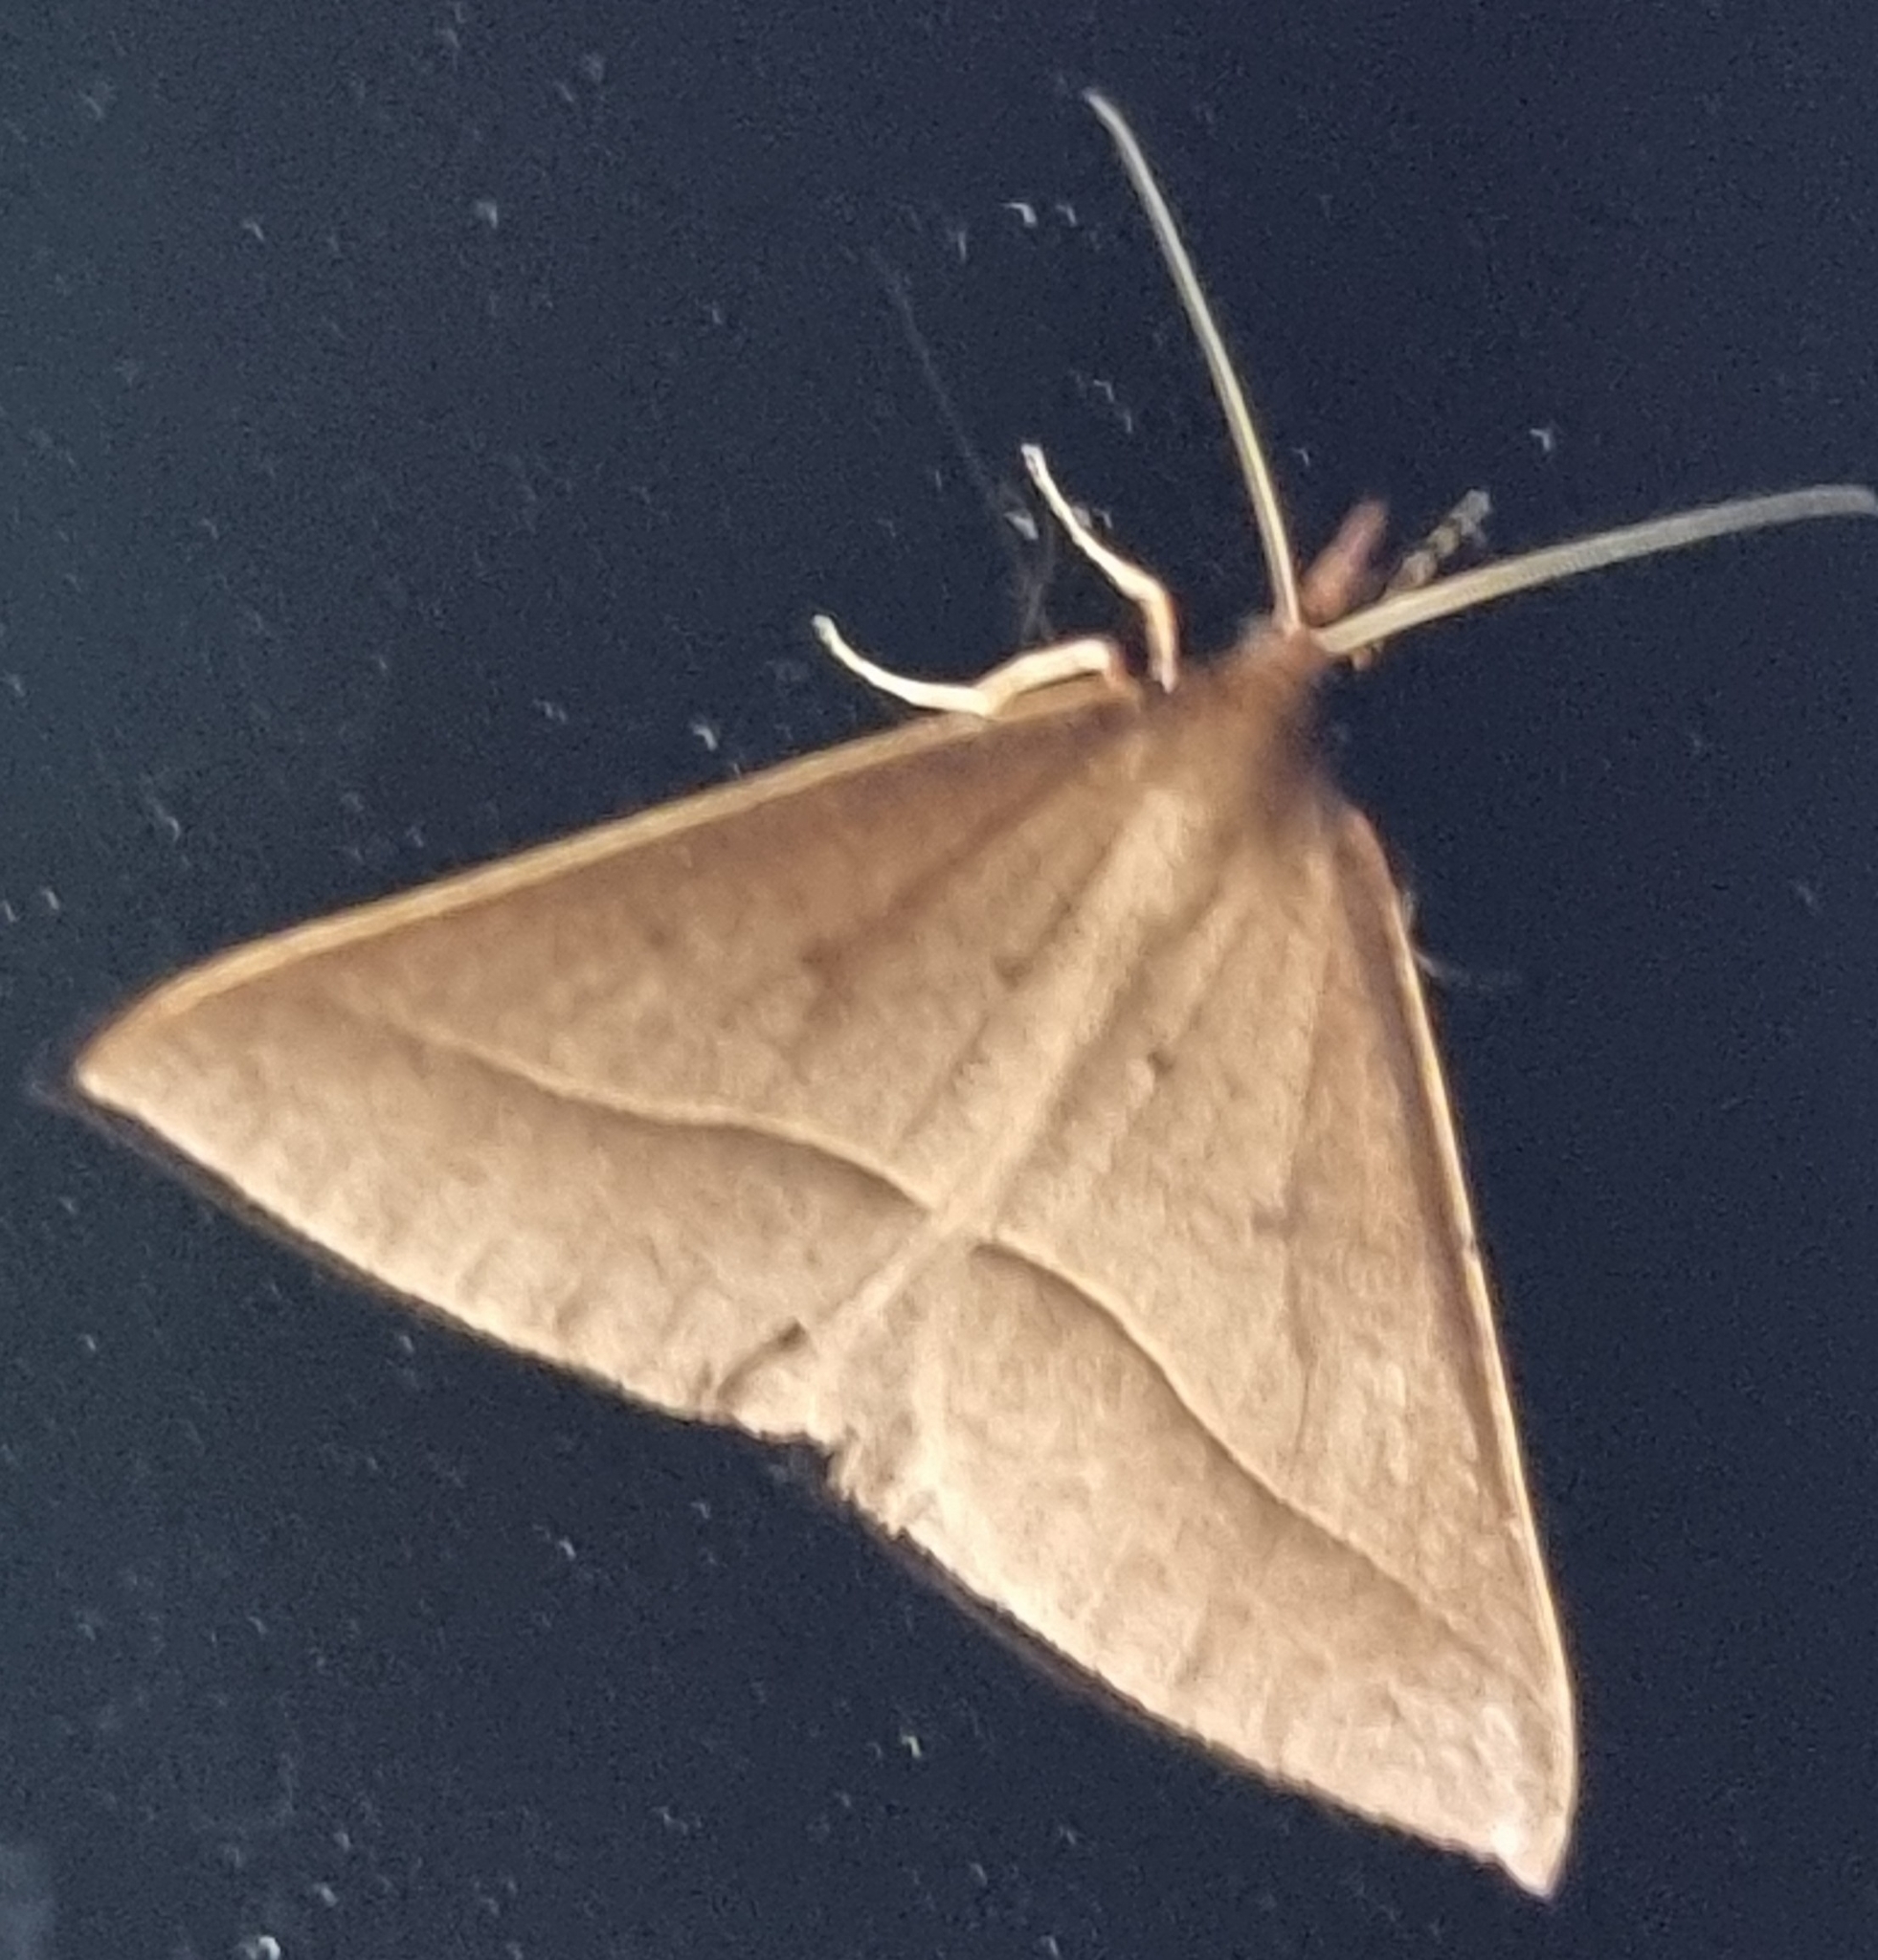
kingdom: Animalia
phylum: Arthropoda
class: Insecta
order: Lepidoptera
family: Geometridae
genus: Epidesmia
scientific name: Epidesmia tryxaria
